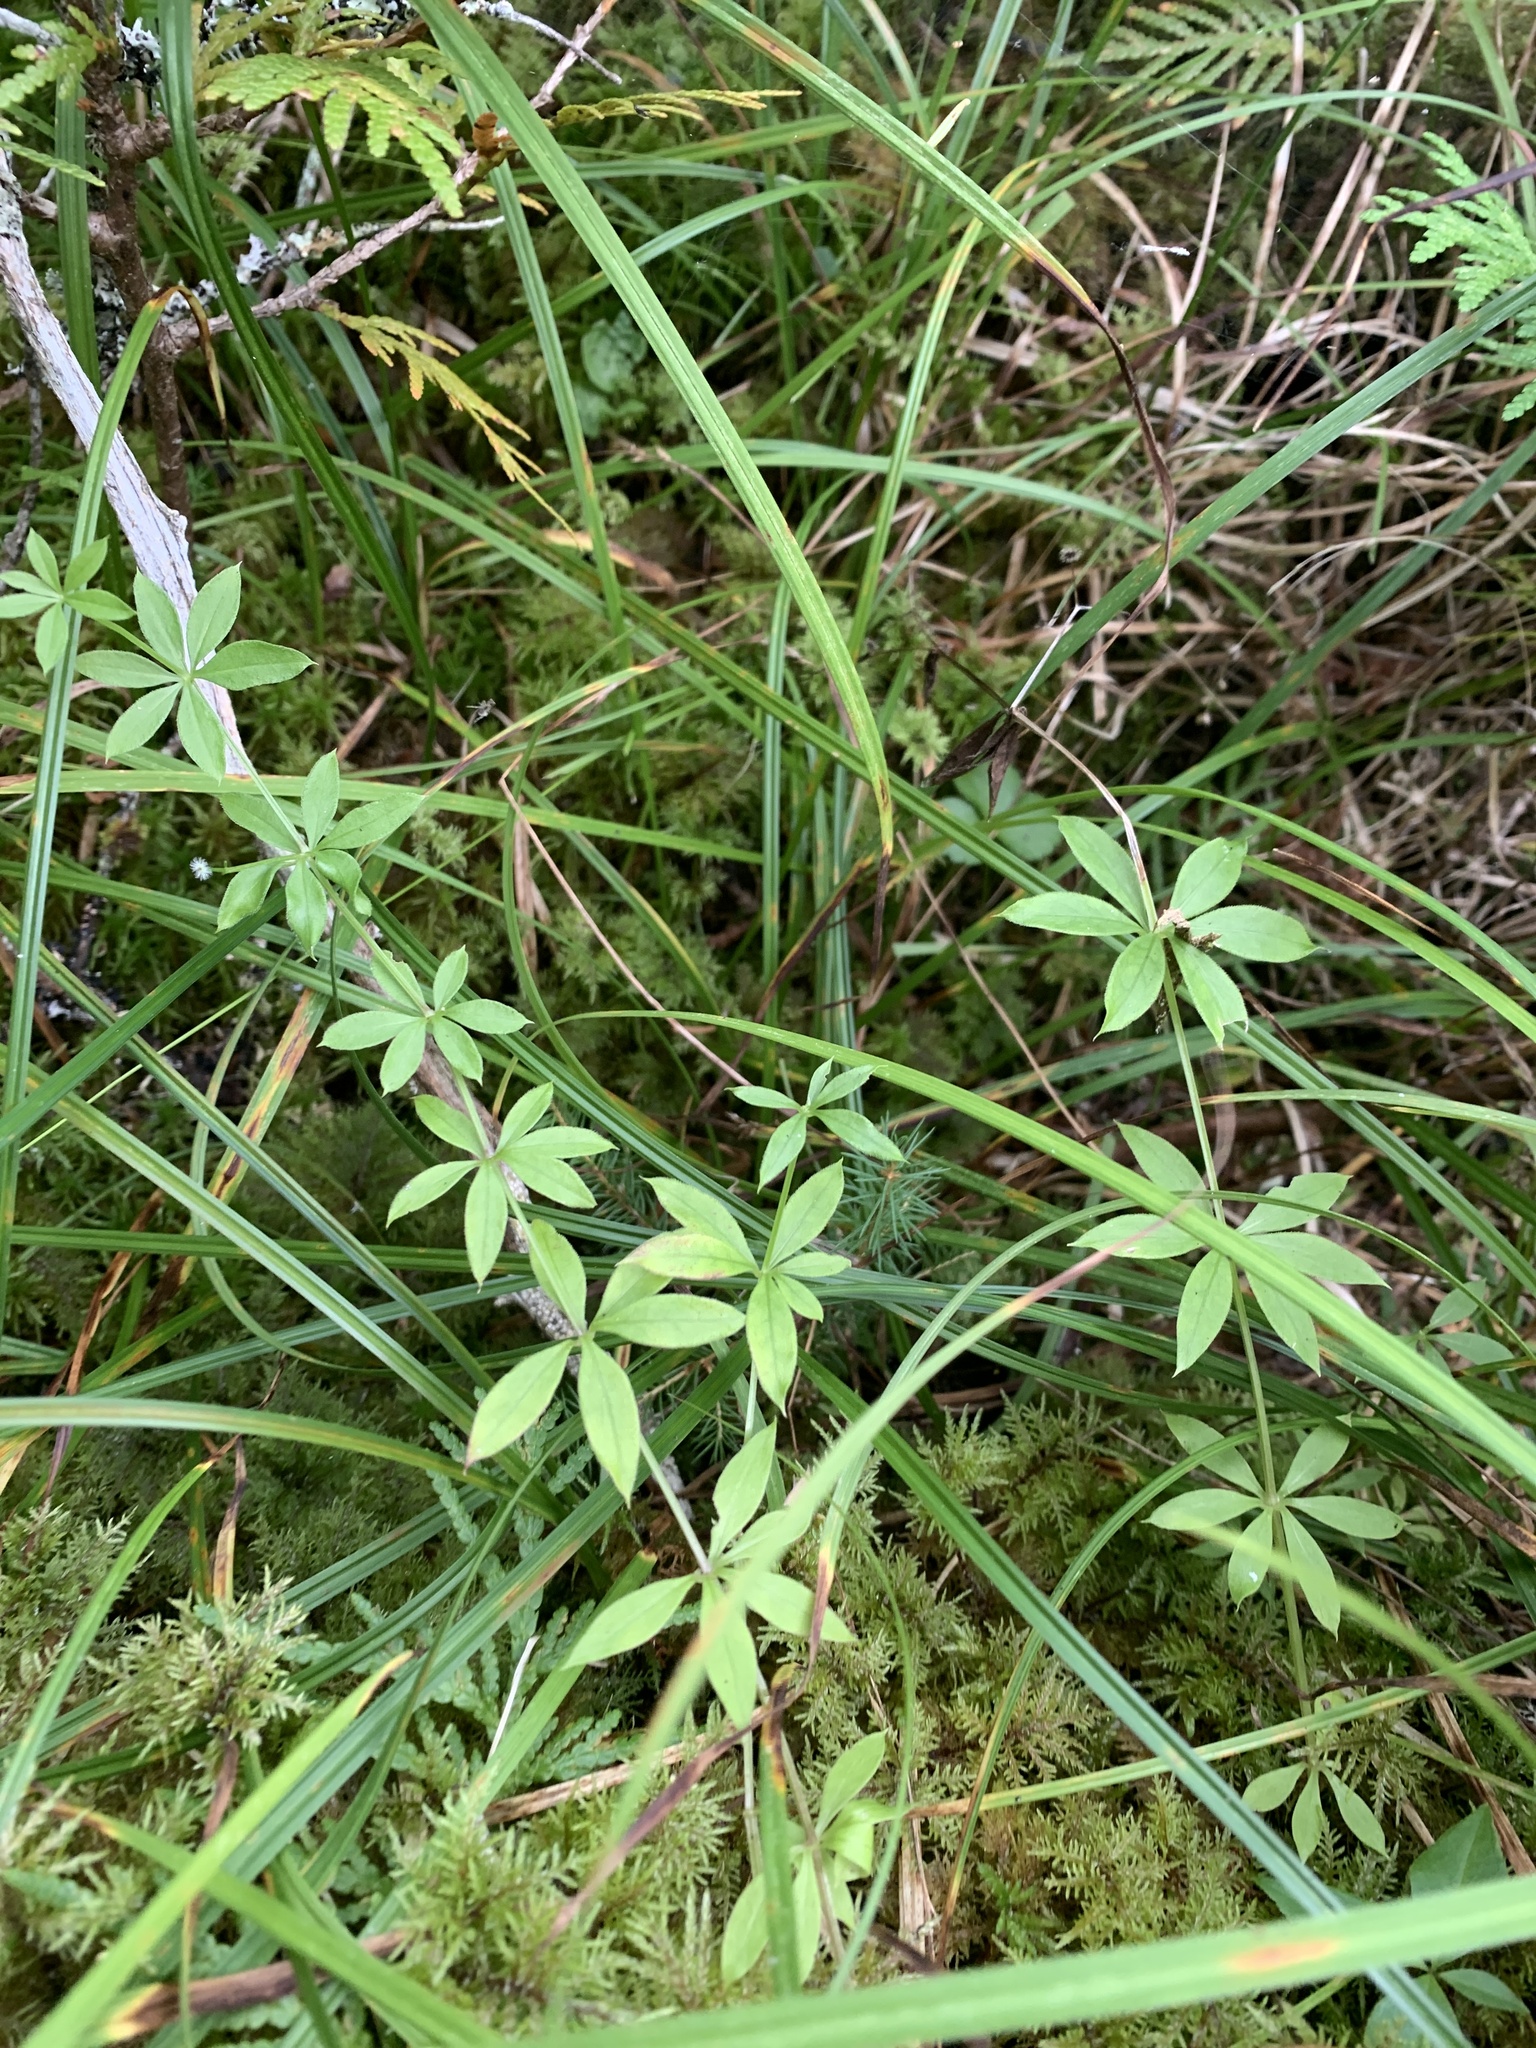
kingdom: Plantae
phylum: Tracheophyta
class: Magnoliopsida
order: Gentianales
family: Rubiaceae
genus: Galium
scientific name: Galium triflorum
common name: Fragrant bedstraw
